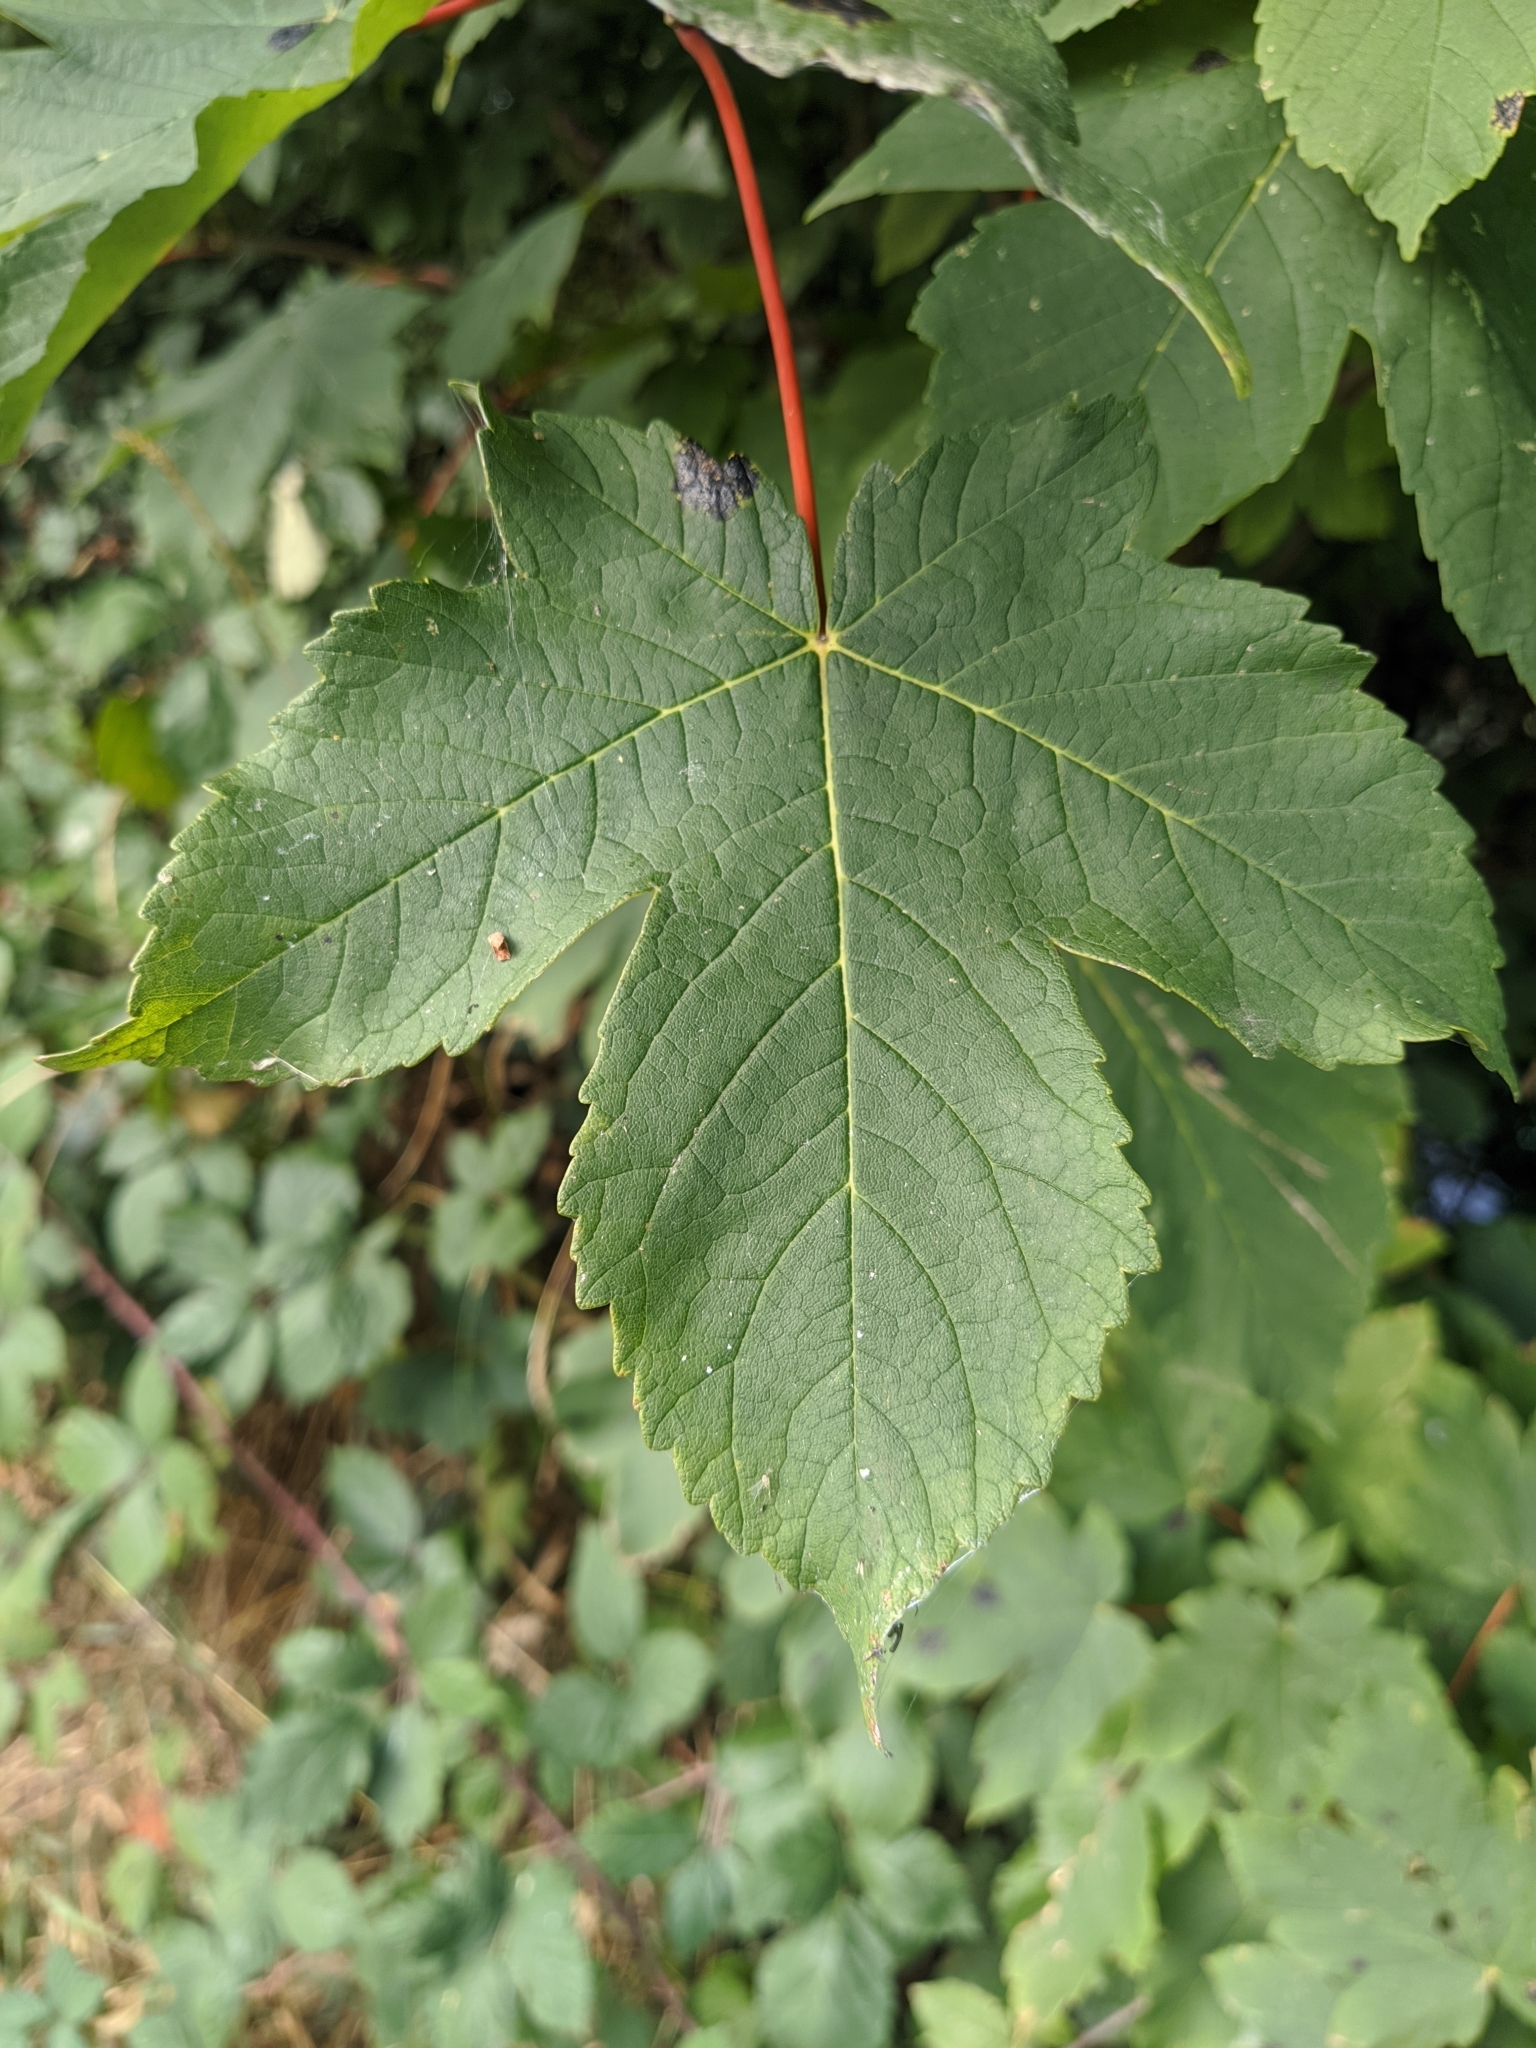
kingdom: Plantae
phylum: Tracheophyta
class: Magnoliopsida
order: Sapindales
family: Sapindaceae
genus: Acer
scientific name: Acer pseudoplatanus
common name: Sycamore
